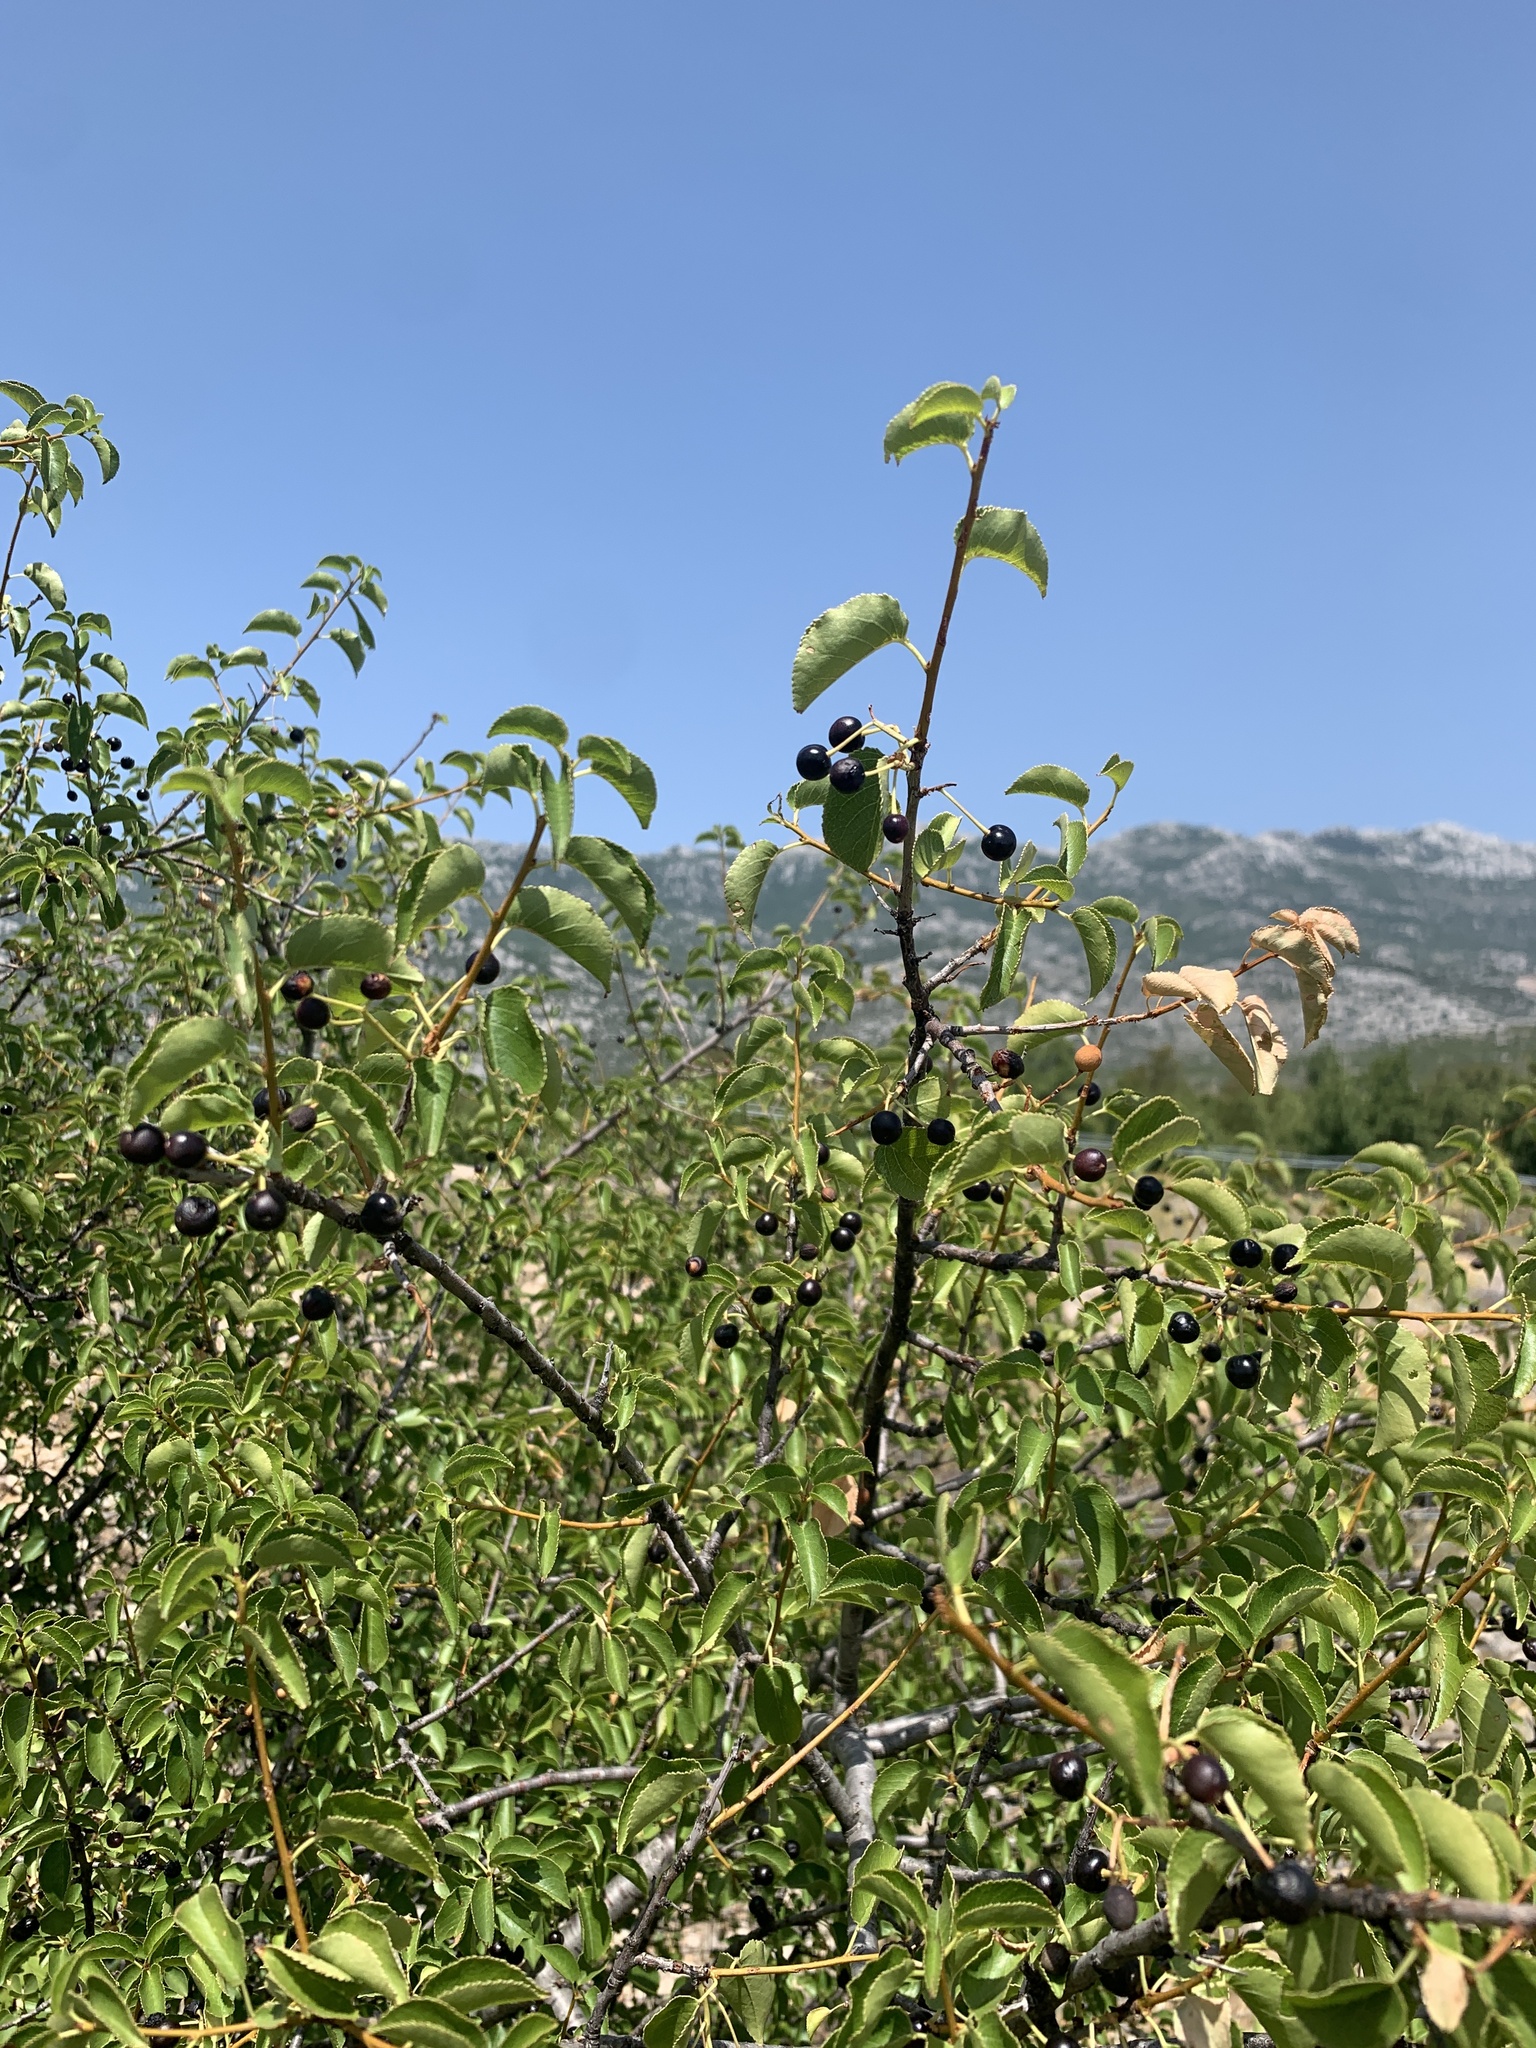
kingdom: Plantae
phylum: Tracheophyta
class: Magnoliopsida
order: Rosales
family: Rosaceae
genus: Prunus
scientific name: Prunus mahaleb
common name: Mahaleb cherry
